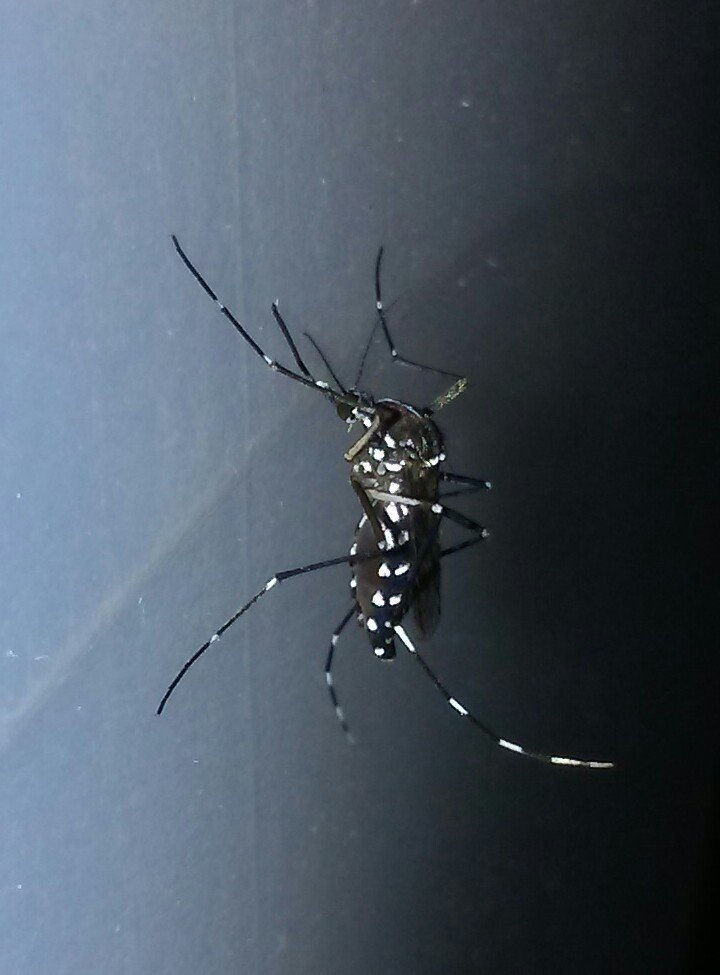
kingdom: Animalia
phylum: Arthropoda
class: Insecta
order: Diptera
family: Culicidae
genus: Aedes
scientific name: Aedes albopictus
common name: Tiger mosquito
